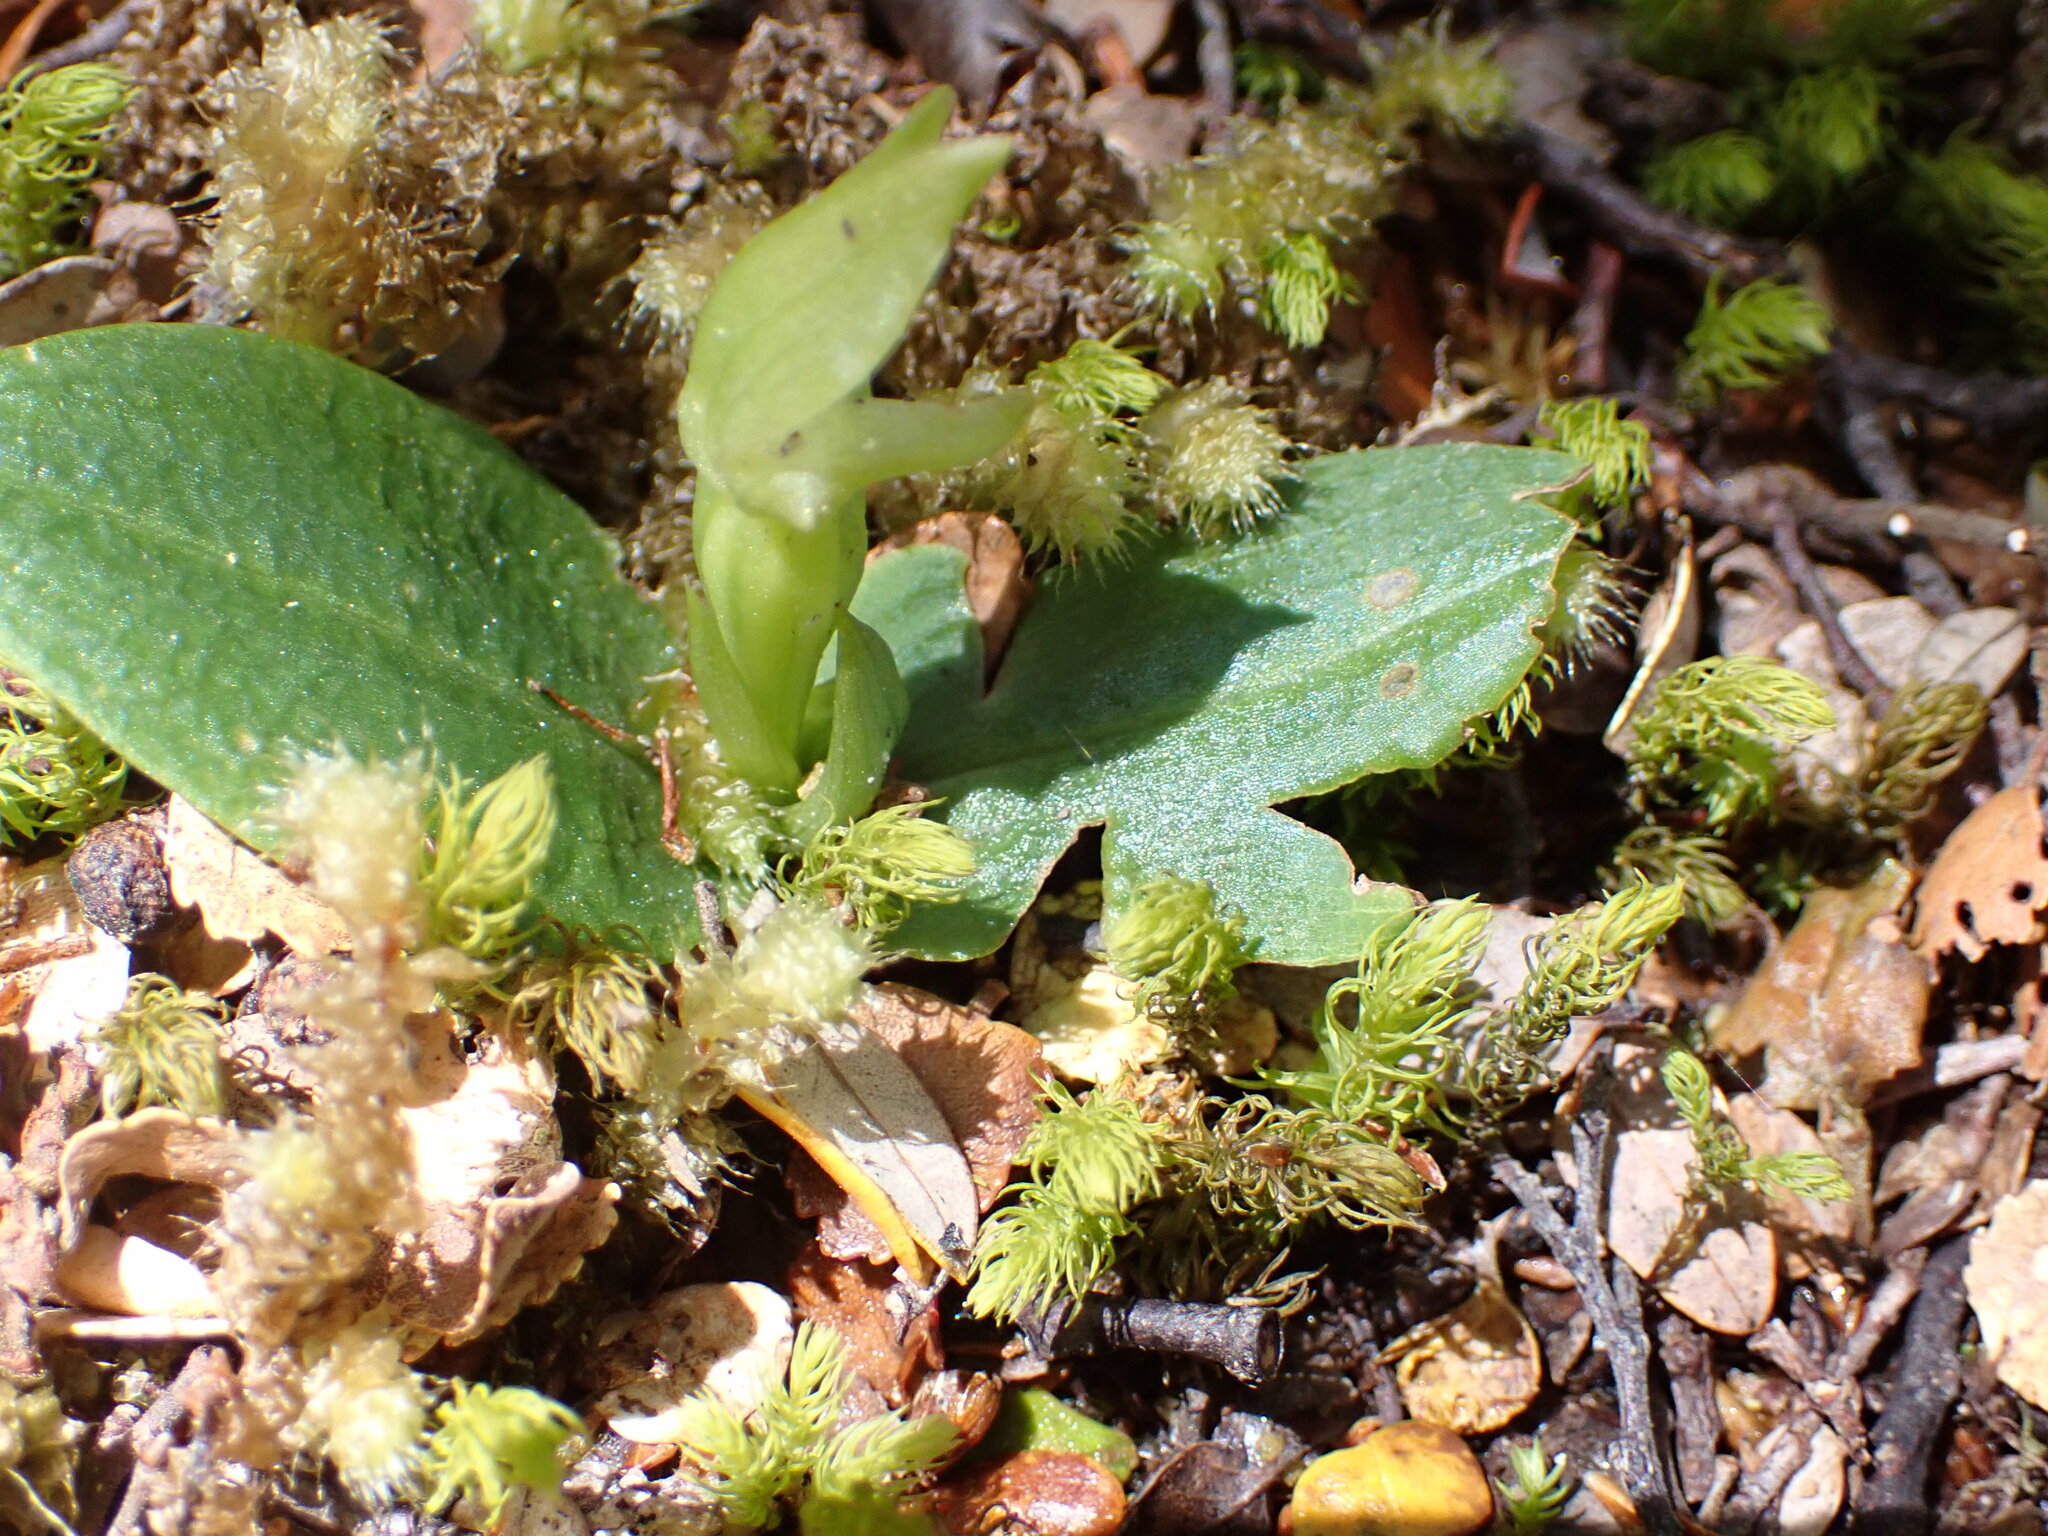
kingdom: Plantae
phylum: Tracheophyta
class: Liliopsida
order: Asparagales
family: Orchidaceae
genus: Chiloglottis
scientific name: Chiloglottis cornuta
